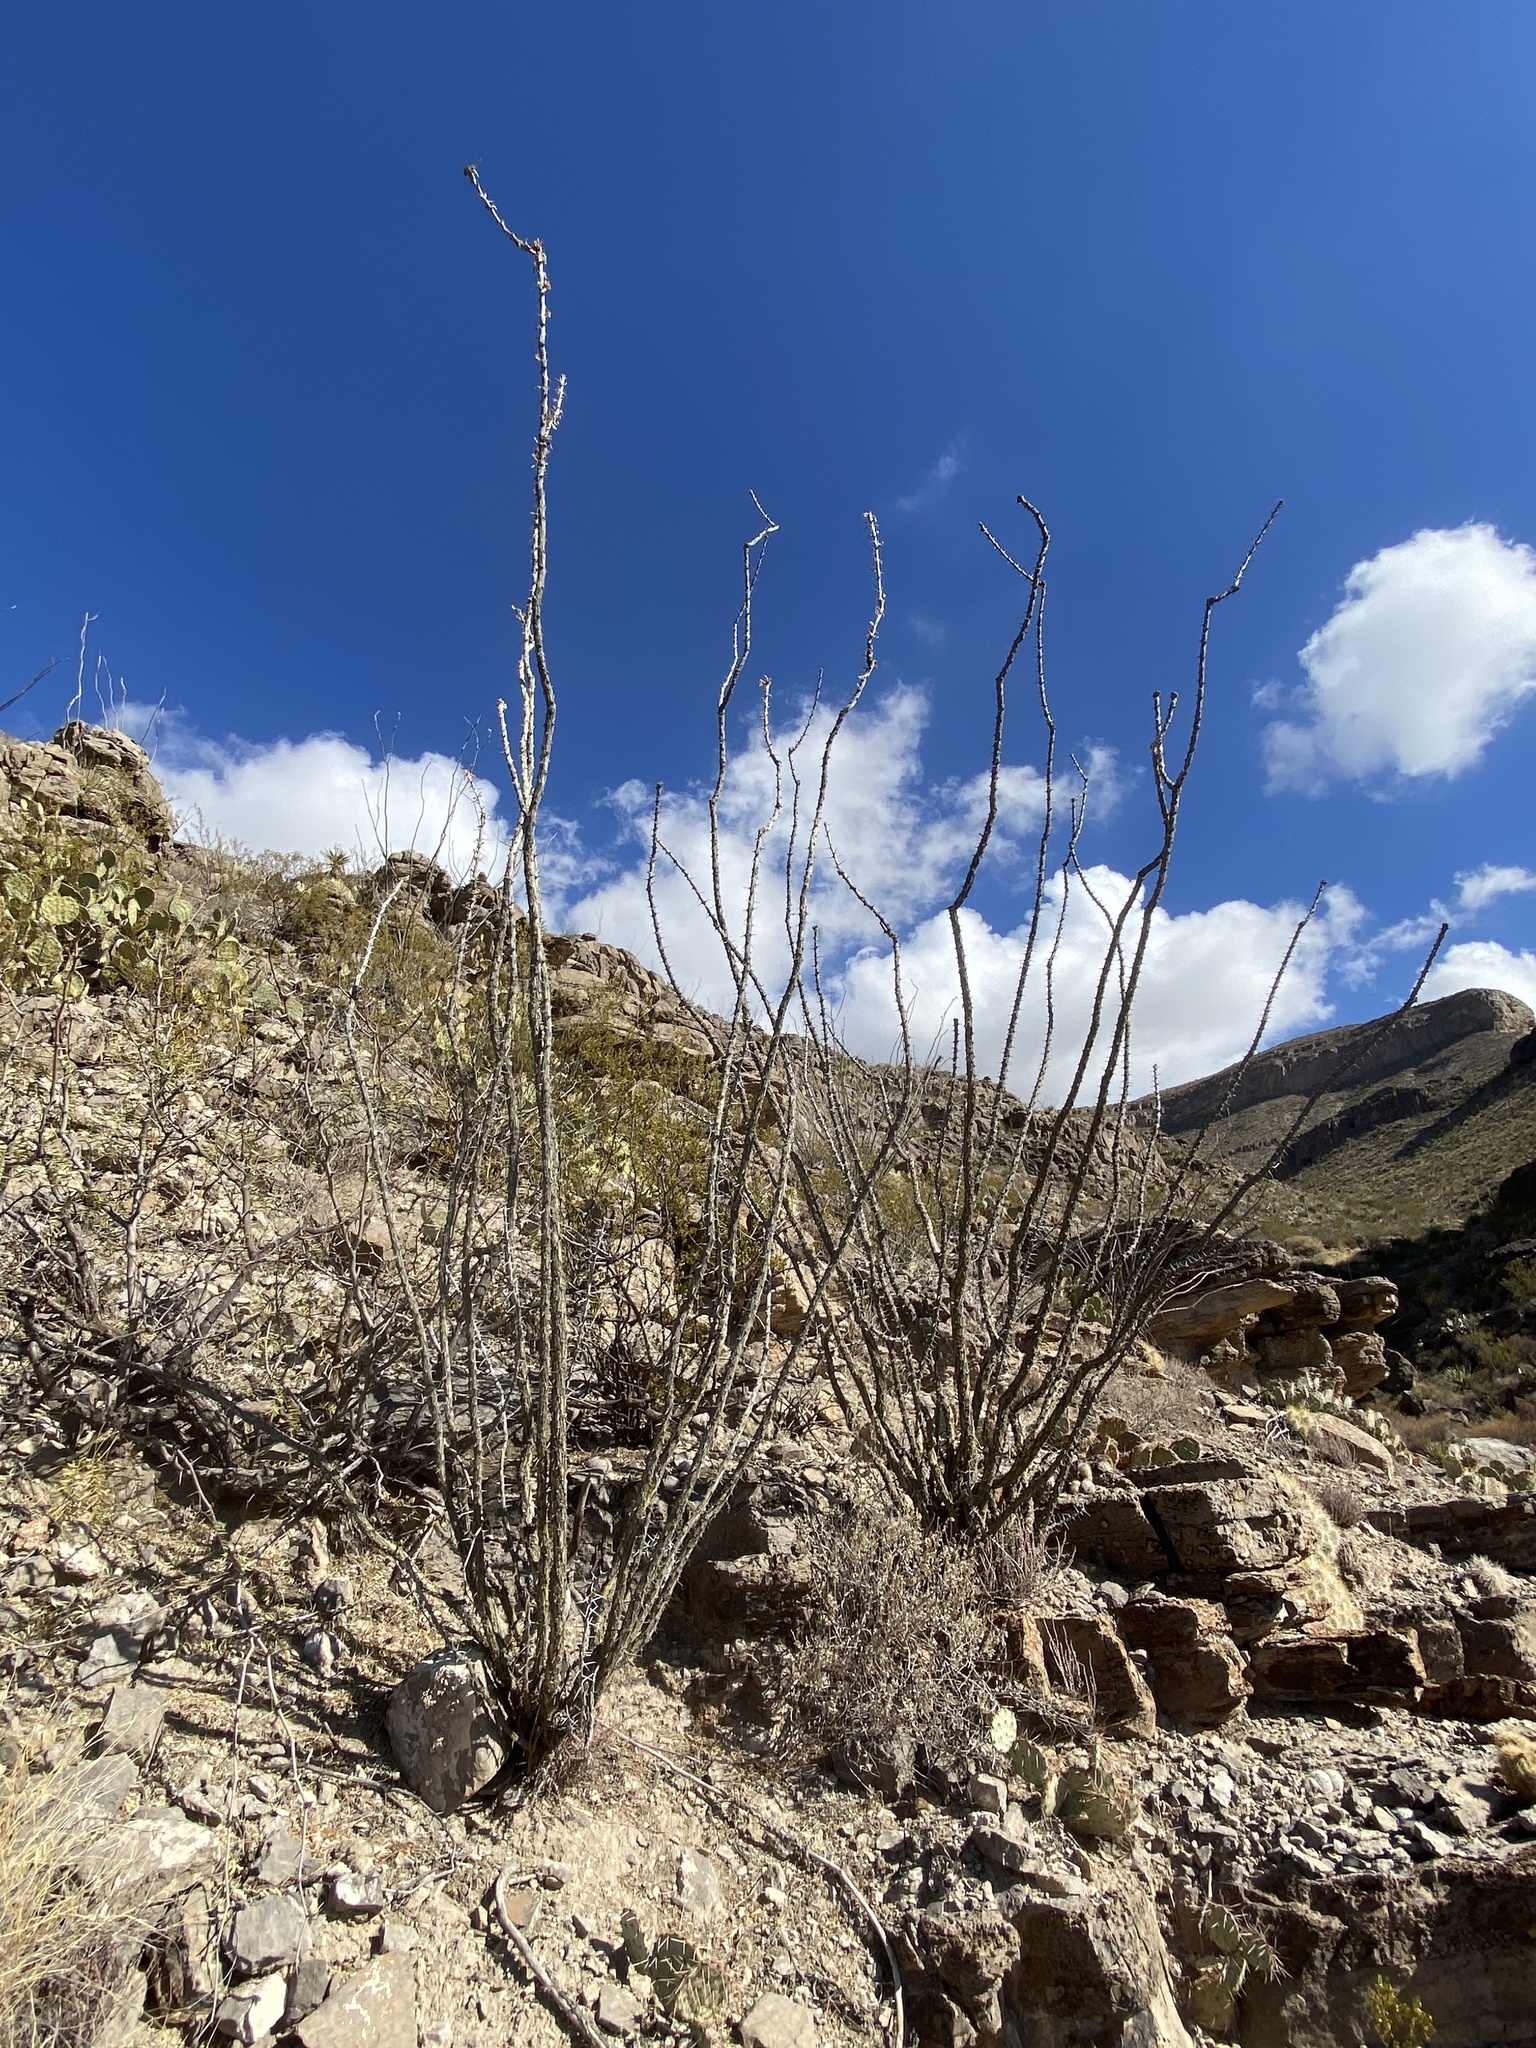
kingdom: Plantae
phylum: Tracheophyta
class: Magnoliopsida
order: Ericales
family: Fouquieriaceae
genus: Fouquieria
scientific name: Fouquieria splendens
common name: Vine-cactus
